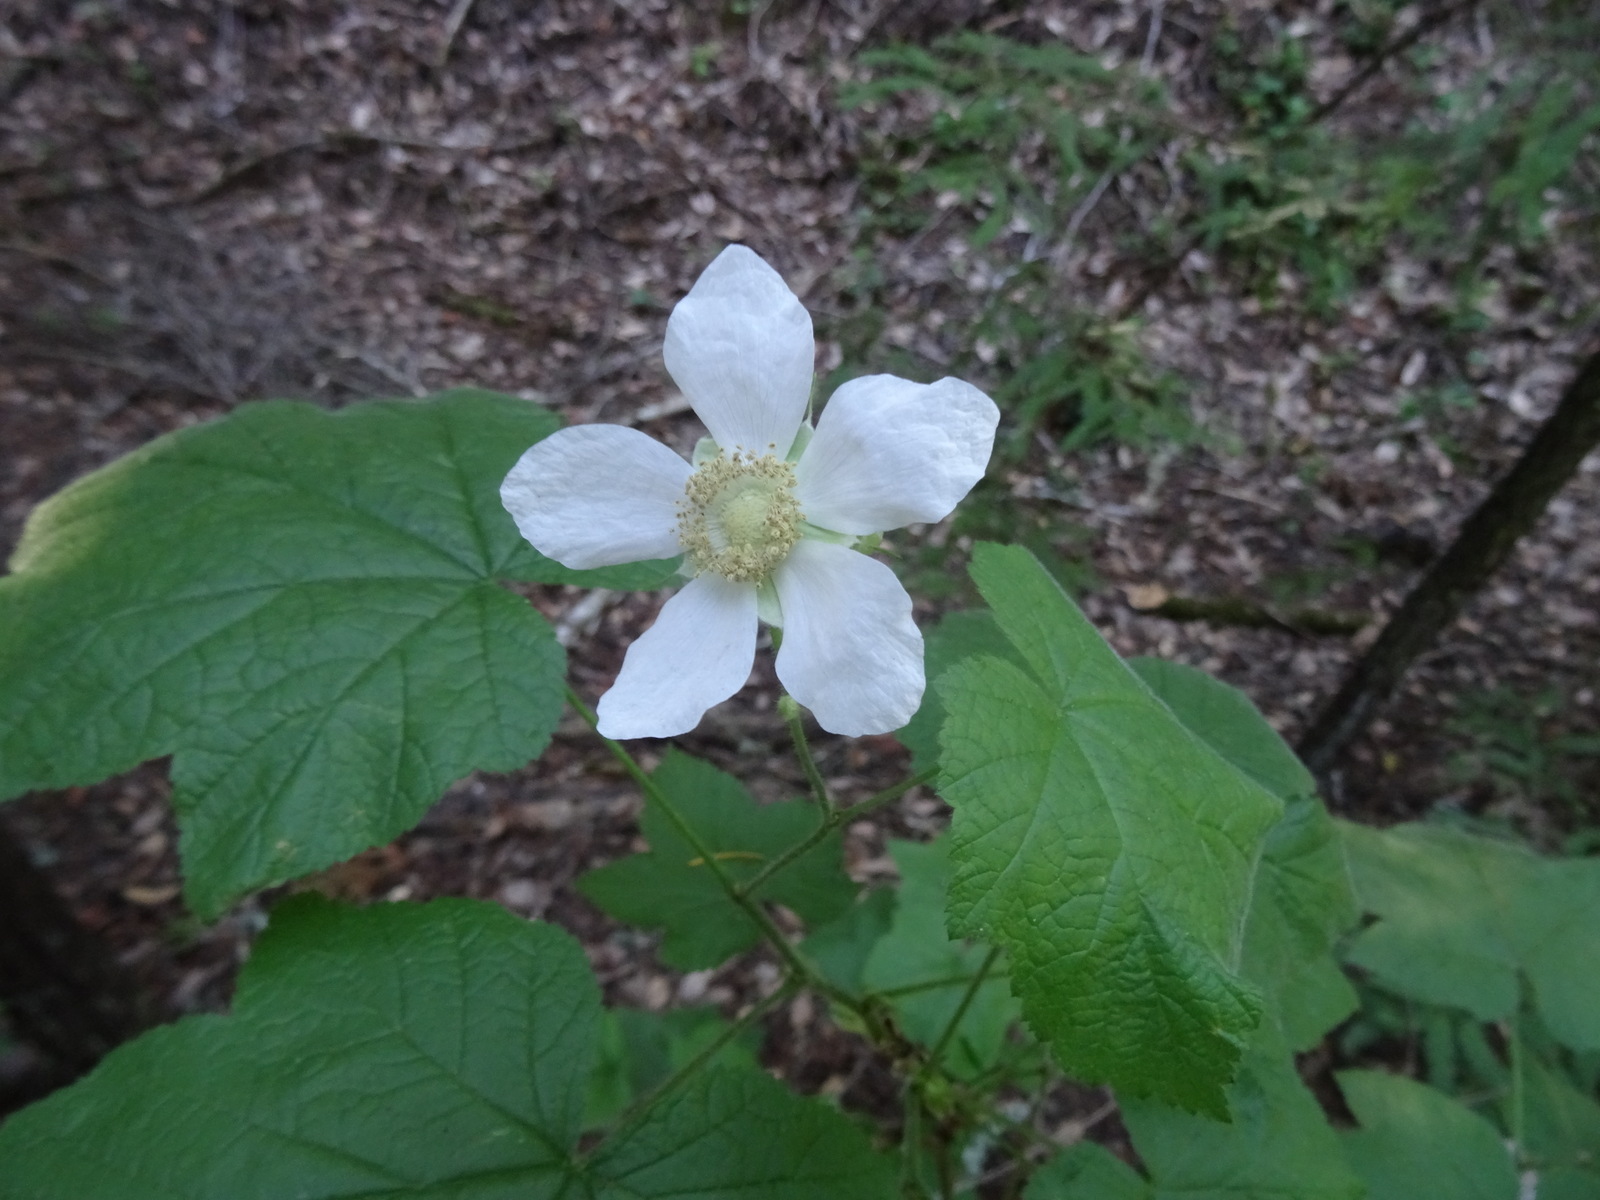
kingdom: Plantae
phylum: Tracheophyta
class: Magnoliopsida
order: Rosales
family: Rosaceae
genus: Rubus
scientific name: Rubus parviflorus
